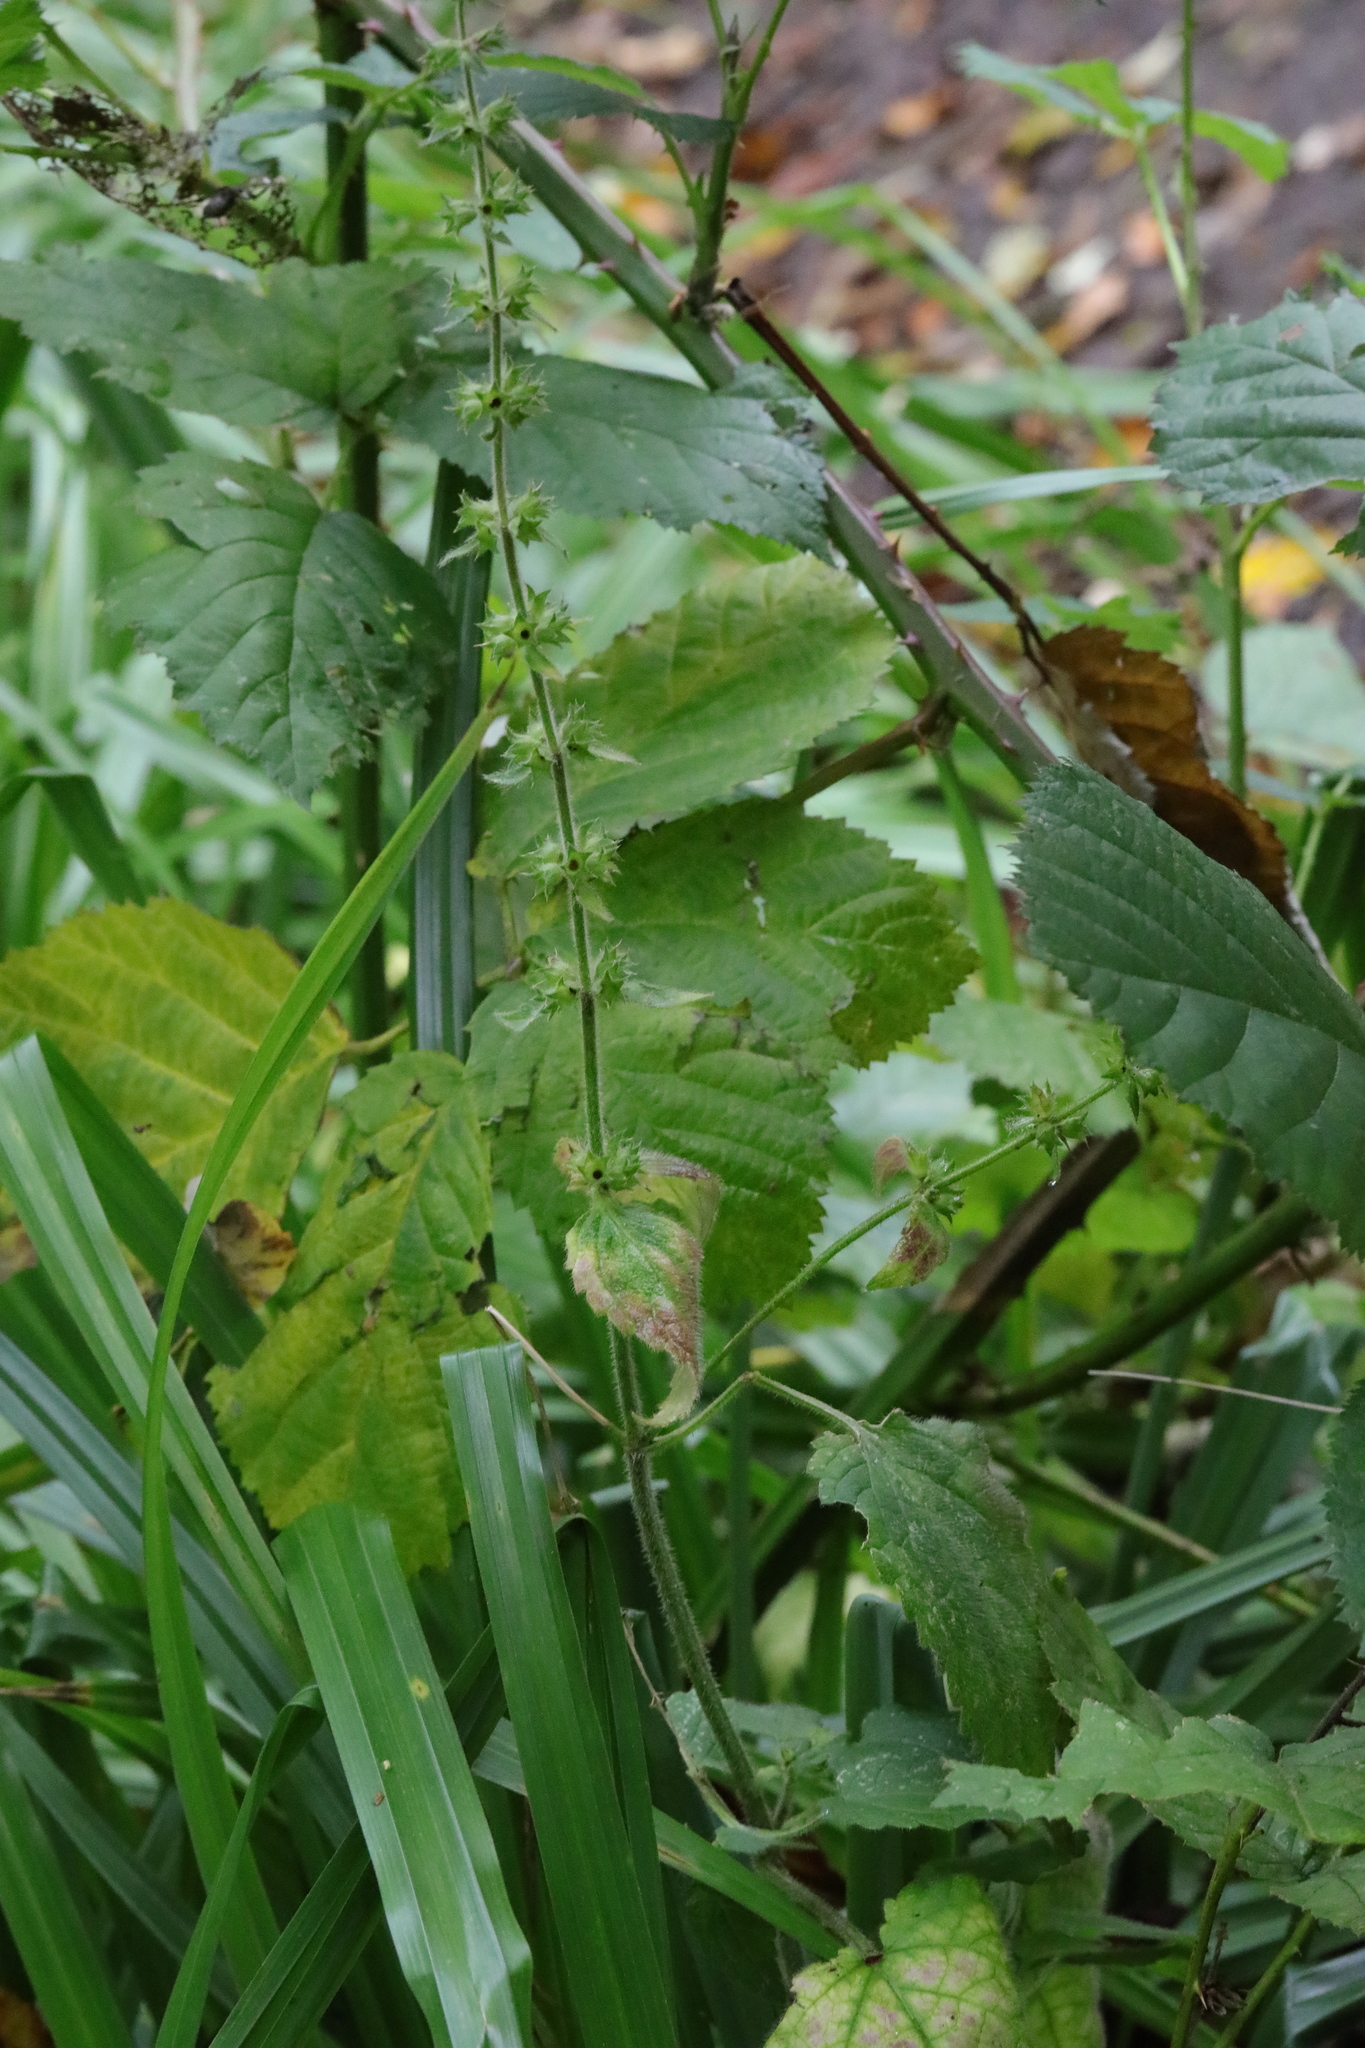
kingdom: Plantae
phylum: Tracheophyta
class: Magnoliopsida
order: Lamiales
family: Lamiaceae
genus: Stachys
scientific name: Stachys sylvatica
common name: Hedge woundwort
